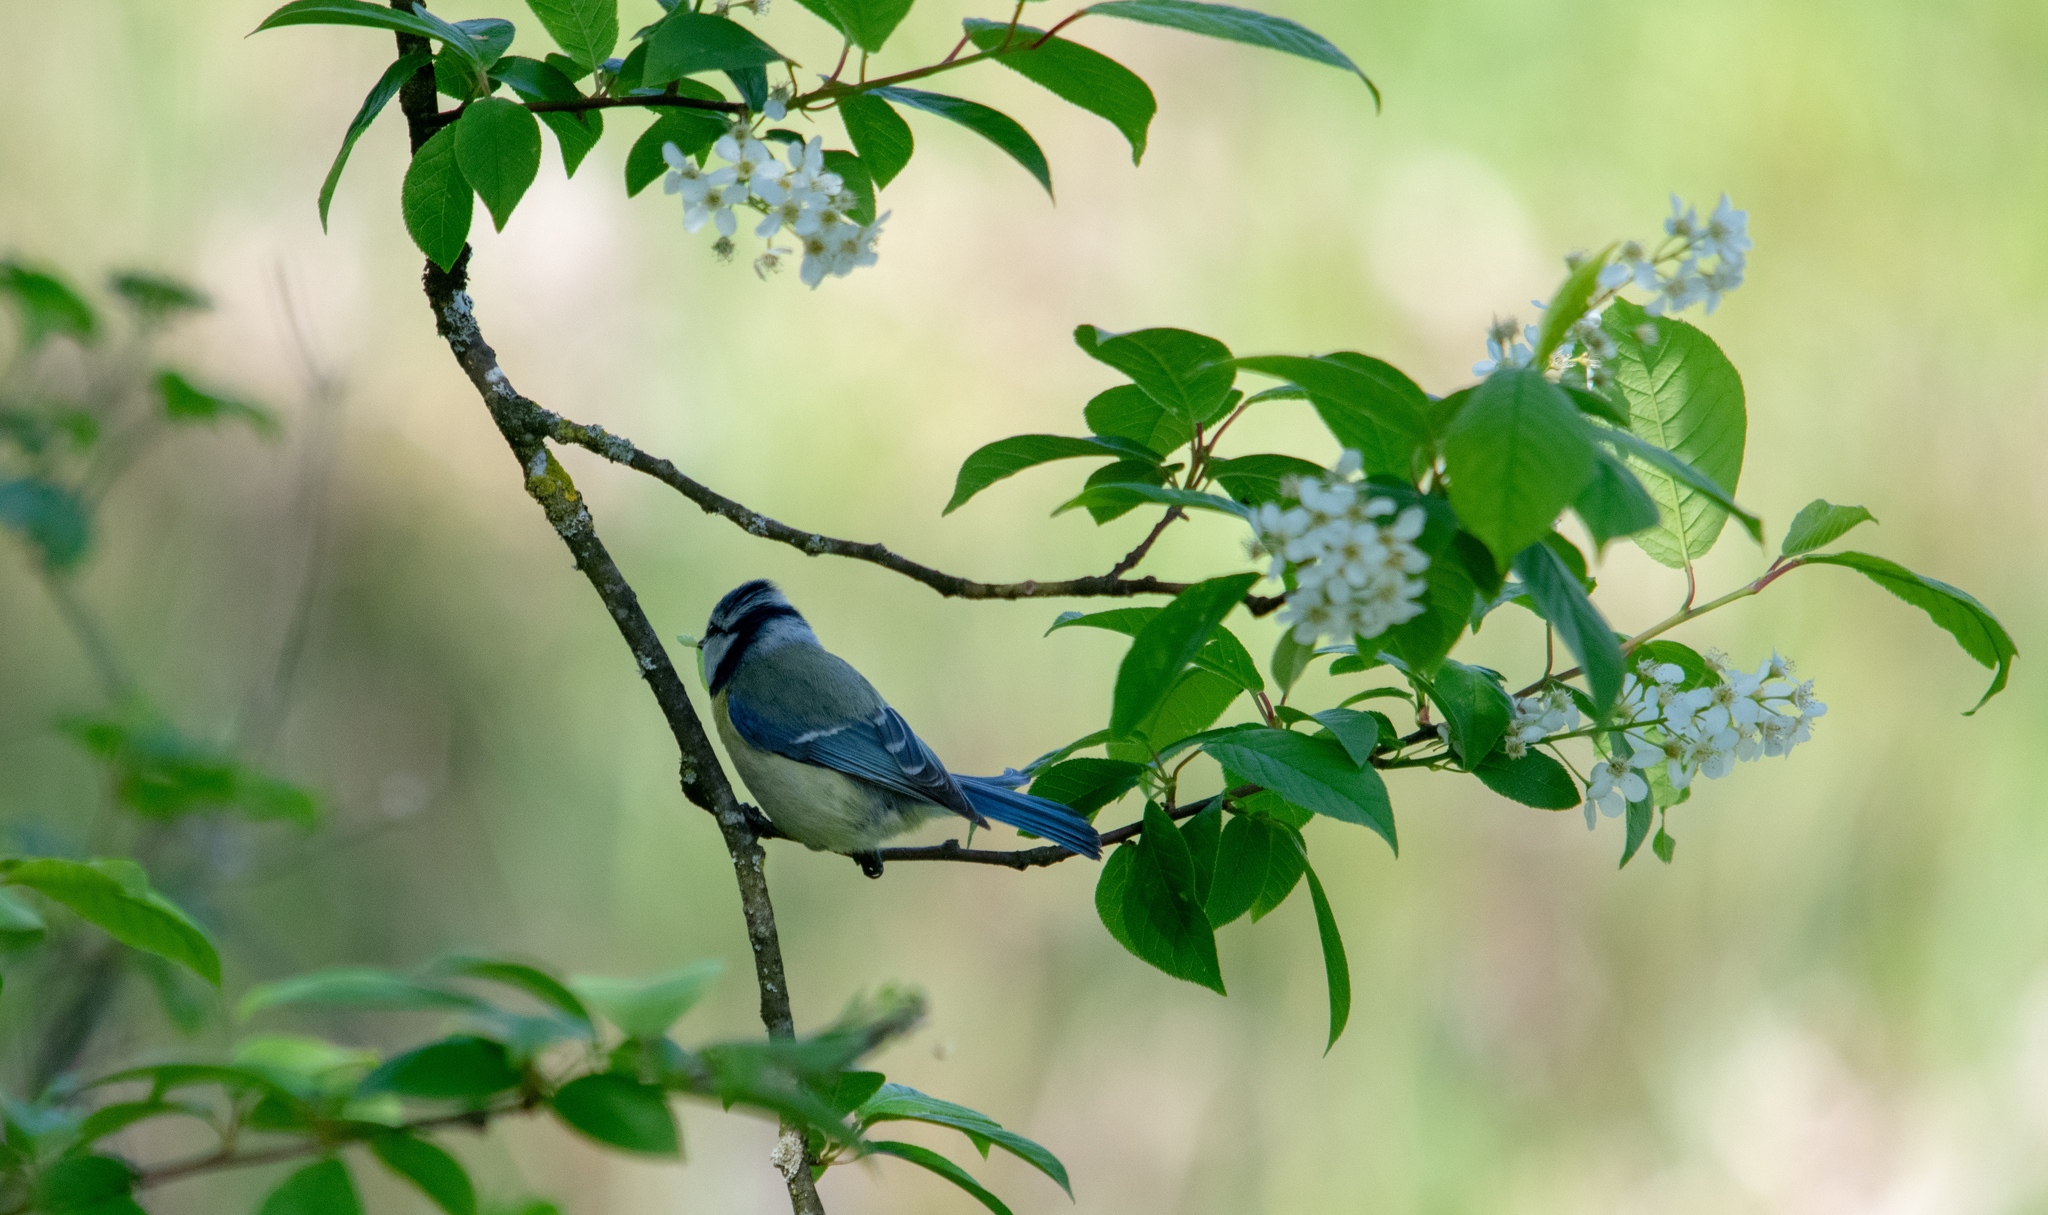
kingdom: Animalia
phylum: Chordata
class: Aves
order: Passeriformes
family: Paridae
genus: Cyanistes
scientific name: Cyanistes caeruleus
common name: Eurasian blue tit
